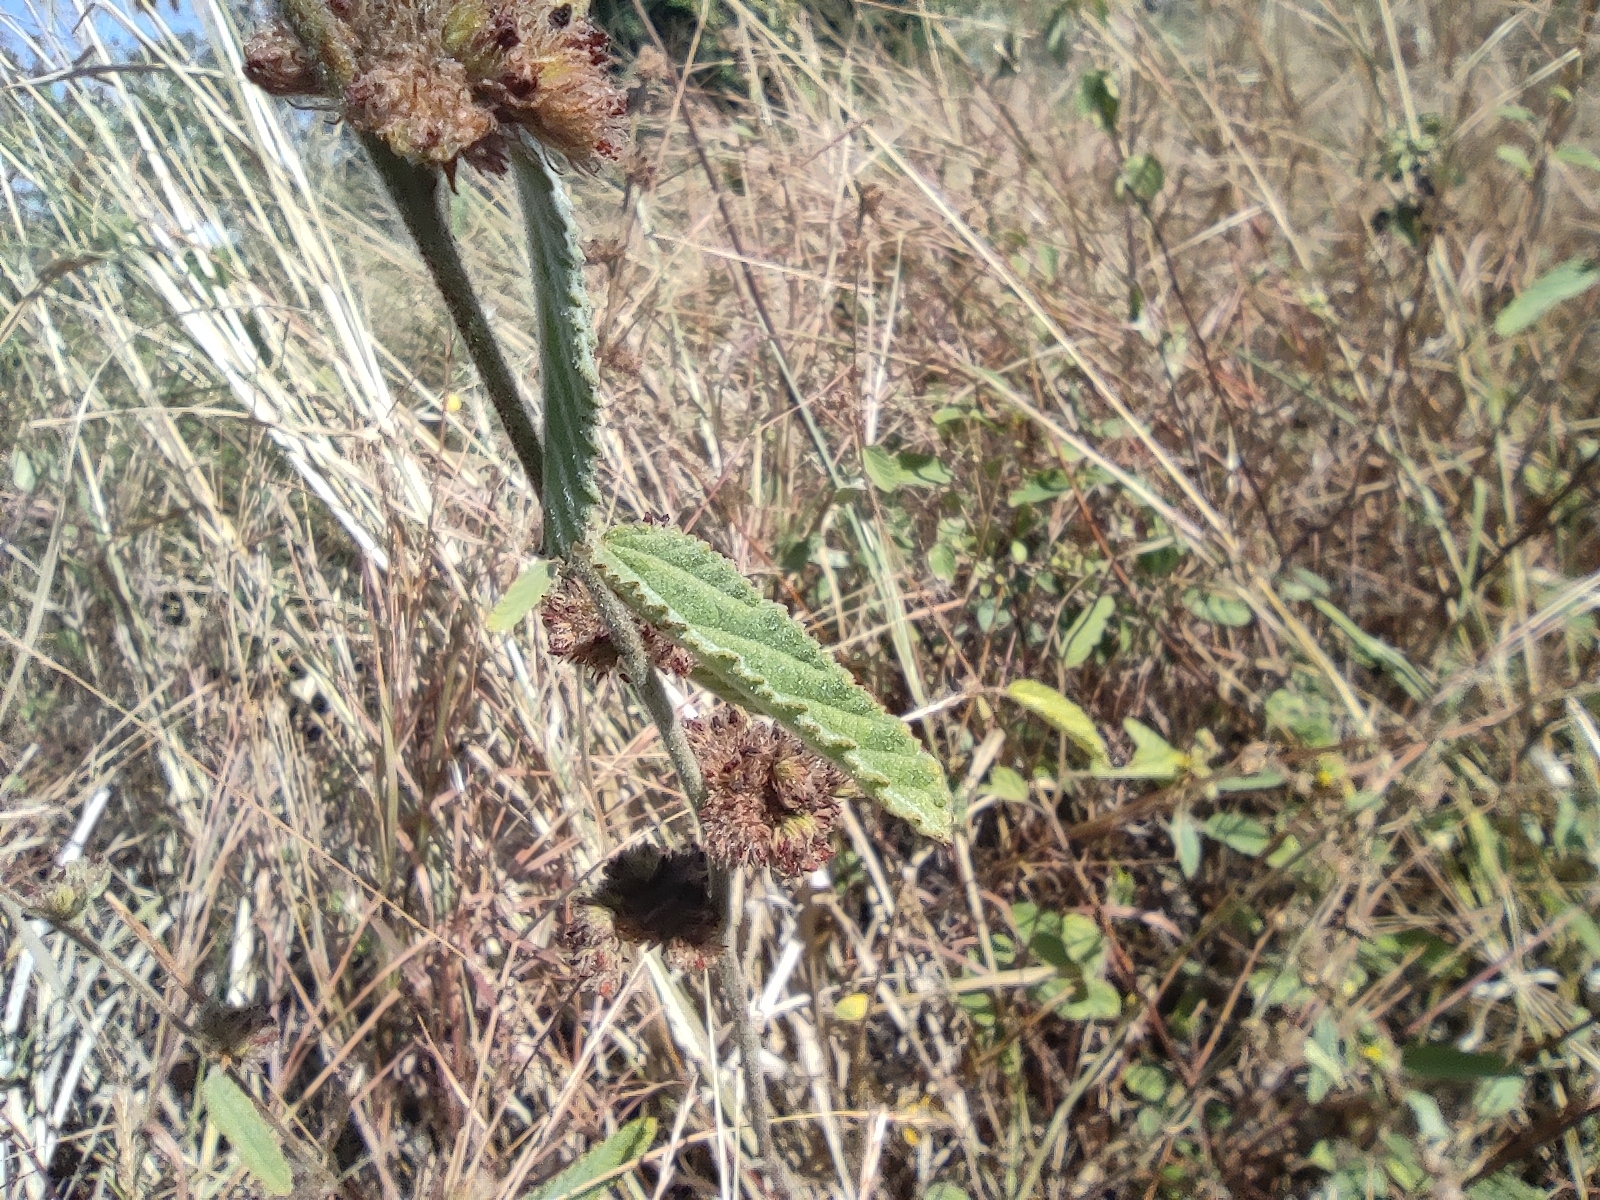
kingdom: Plantae
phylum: Tracheophyta
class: Magnoliopsida
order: Malvales
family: Malvaceae
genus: Waltheria
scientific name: Waltheria indica
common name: Leather-coat
